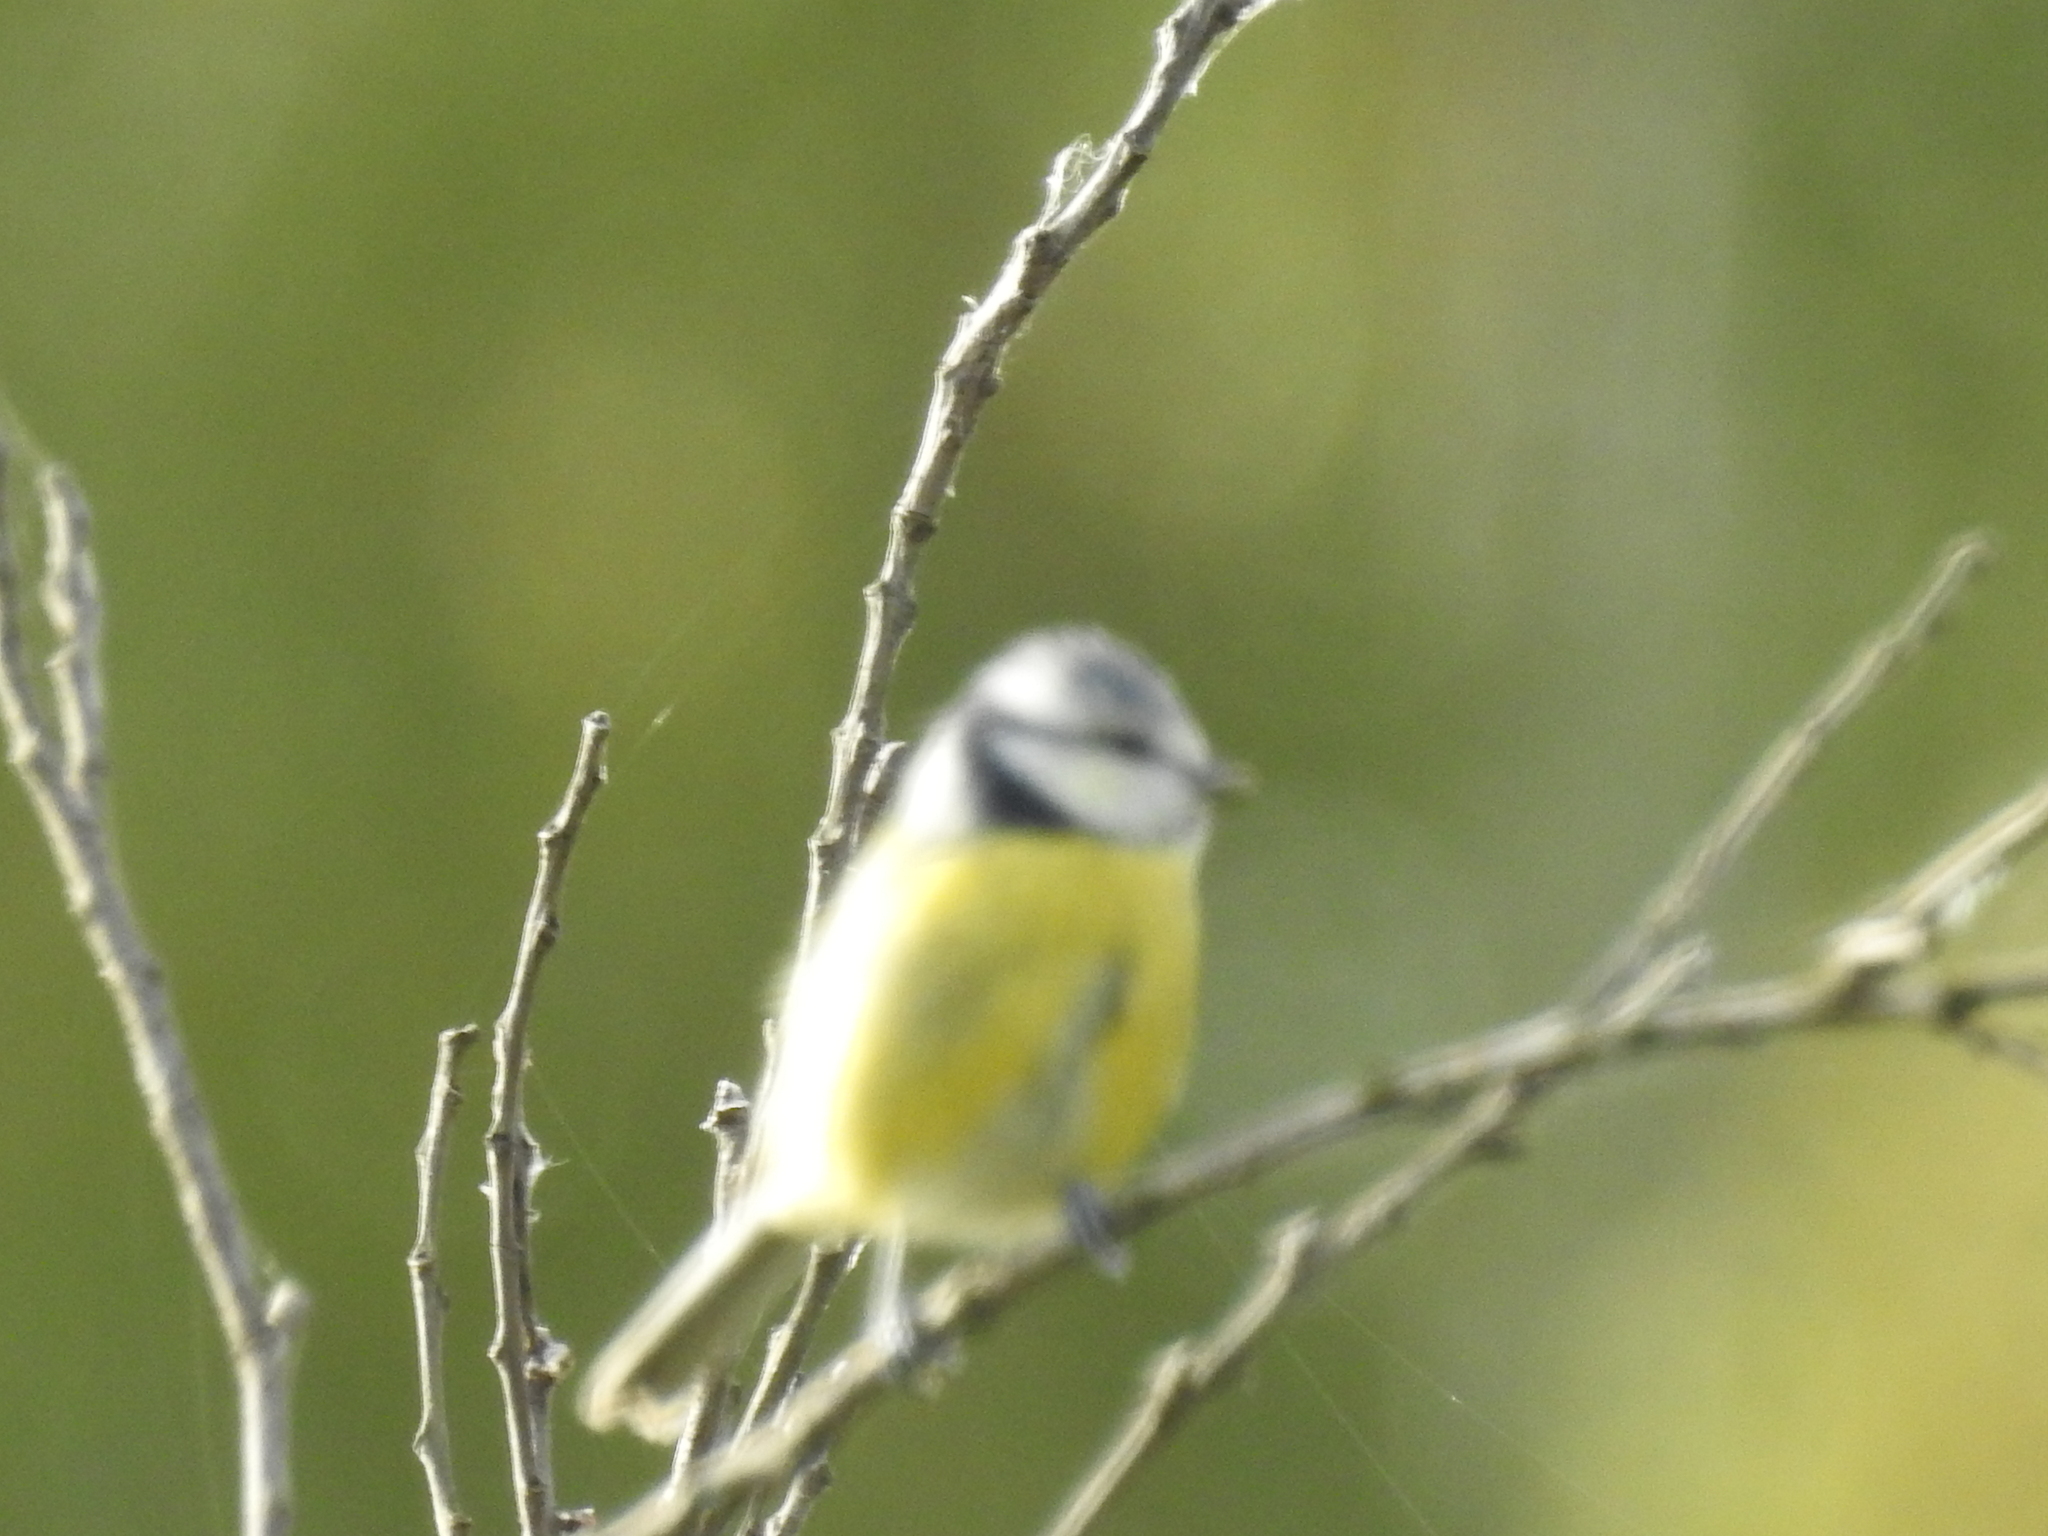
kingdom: Animalia
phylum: Chordata
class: Aves
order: Passeriformes
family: Paridae
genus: Cyanistes
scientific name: Cyanistes caeruleus
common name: Eurasian blue tit
